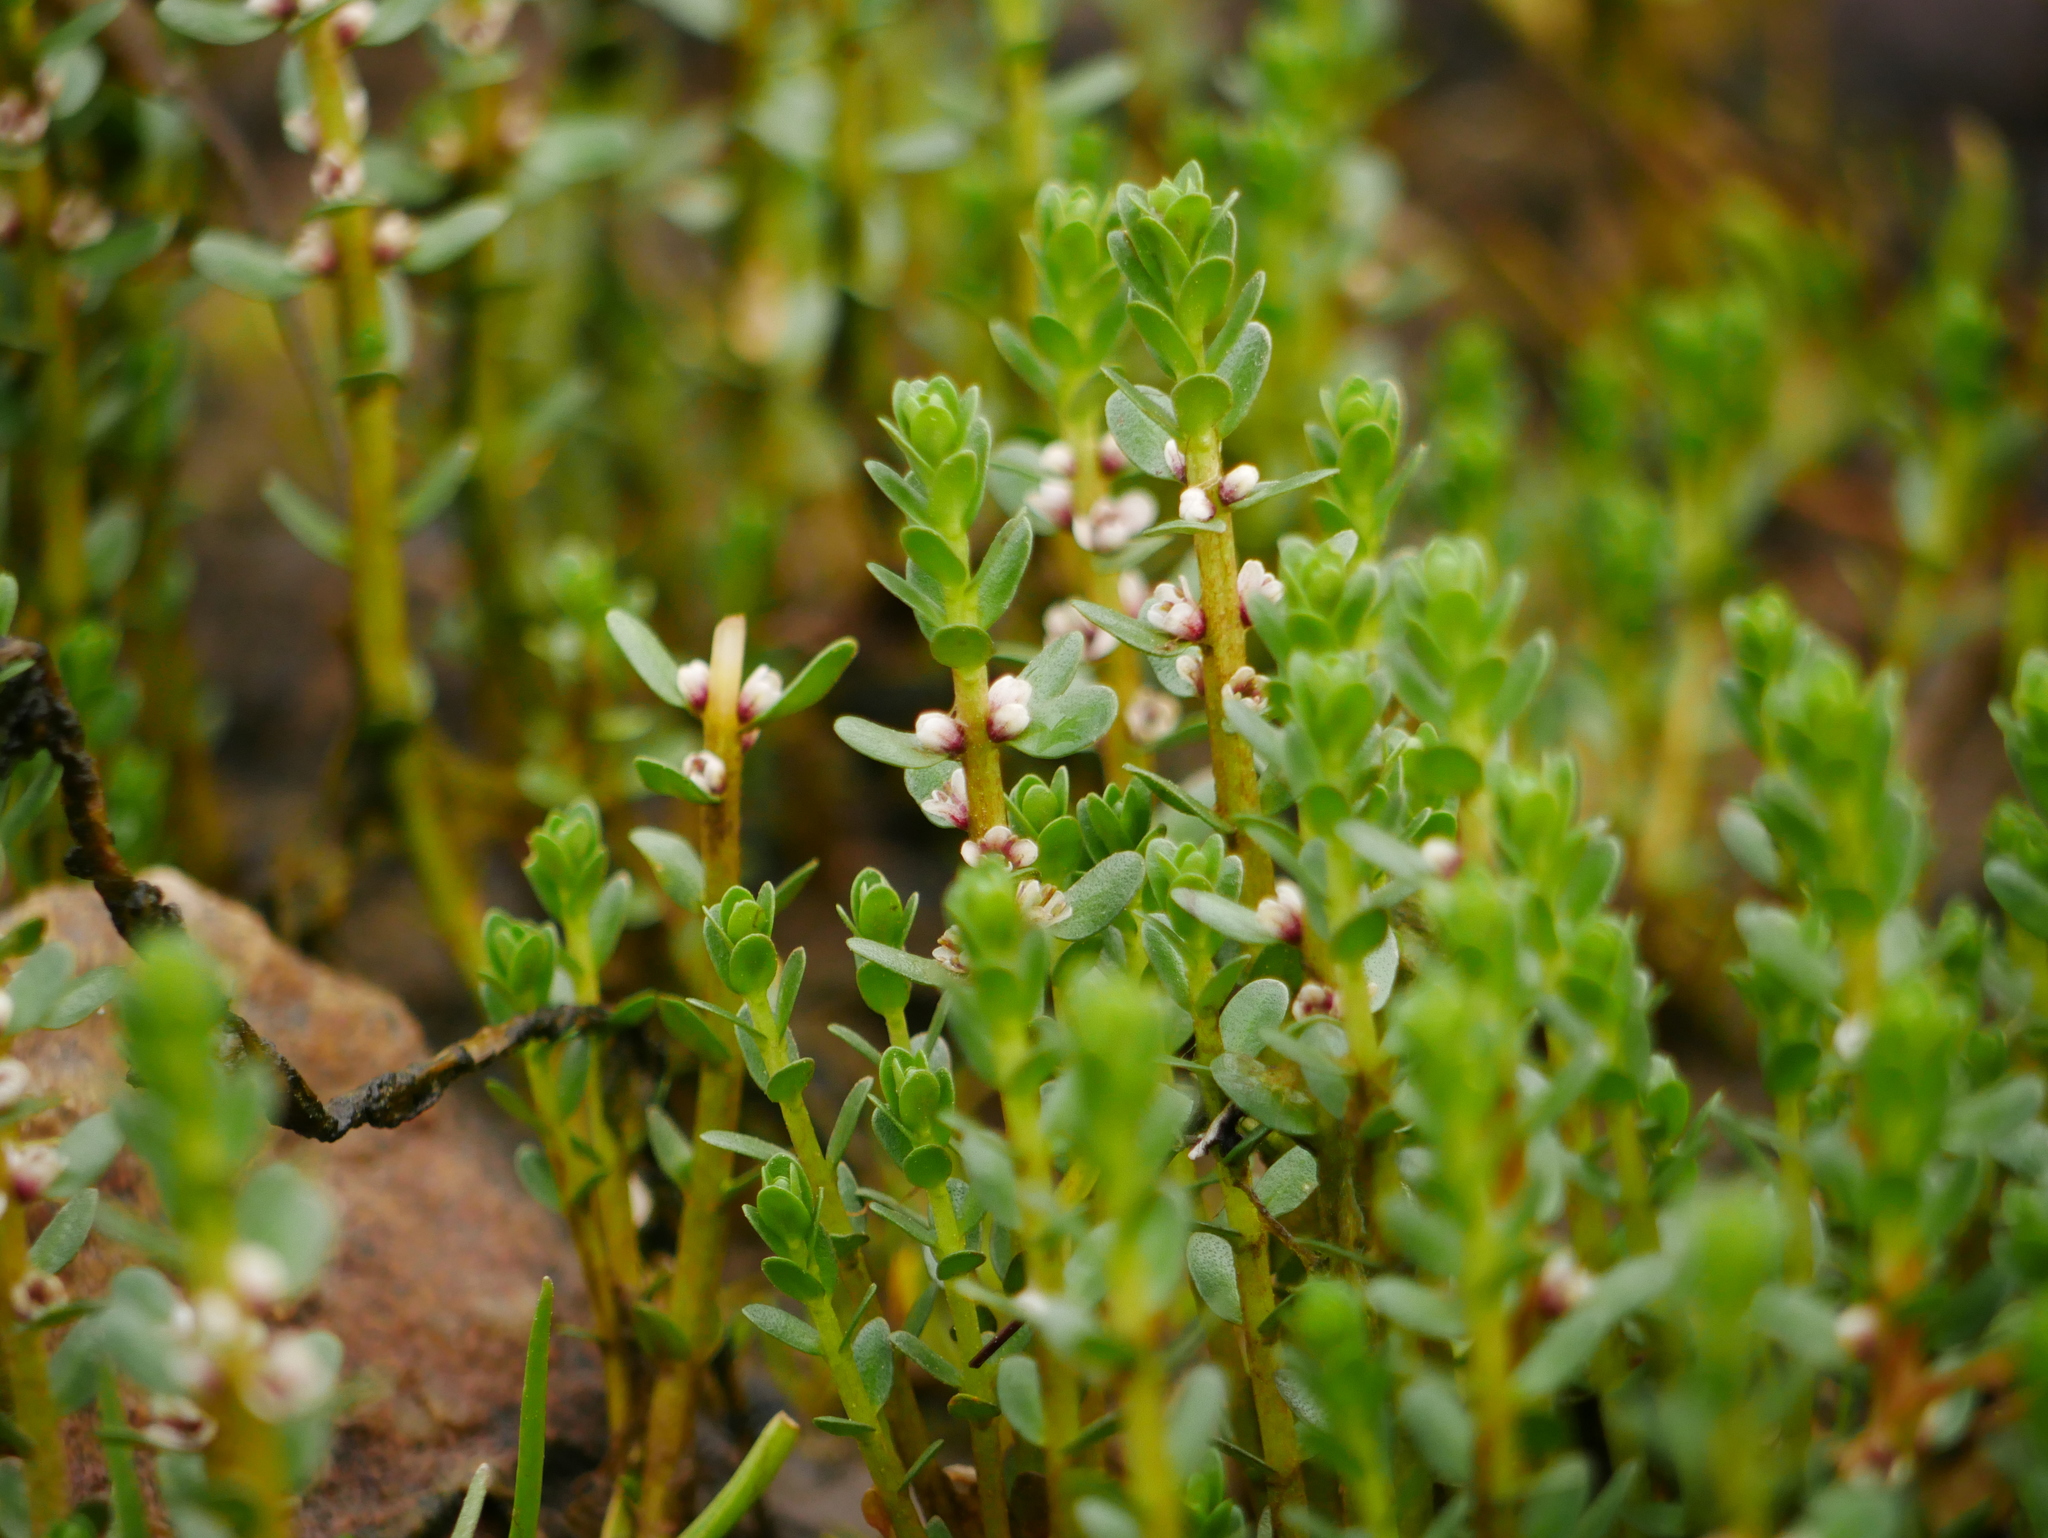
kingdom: Plantae
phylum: Tracheophyta
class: Magnoliopsida
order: Ericales
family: Primulaceae
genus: Lysimachia
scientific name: Lysimachia maritima
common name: Sea milkwort
